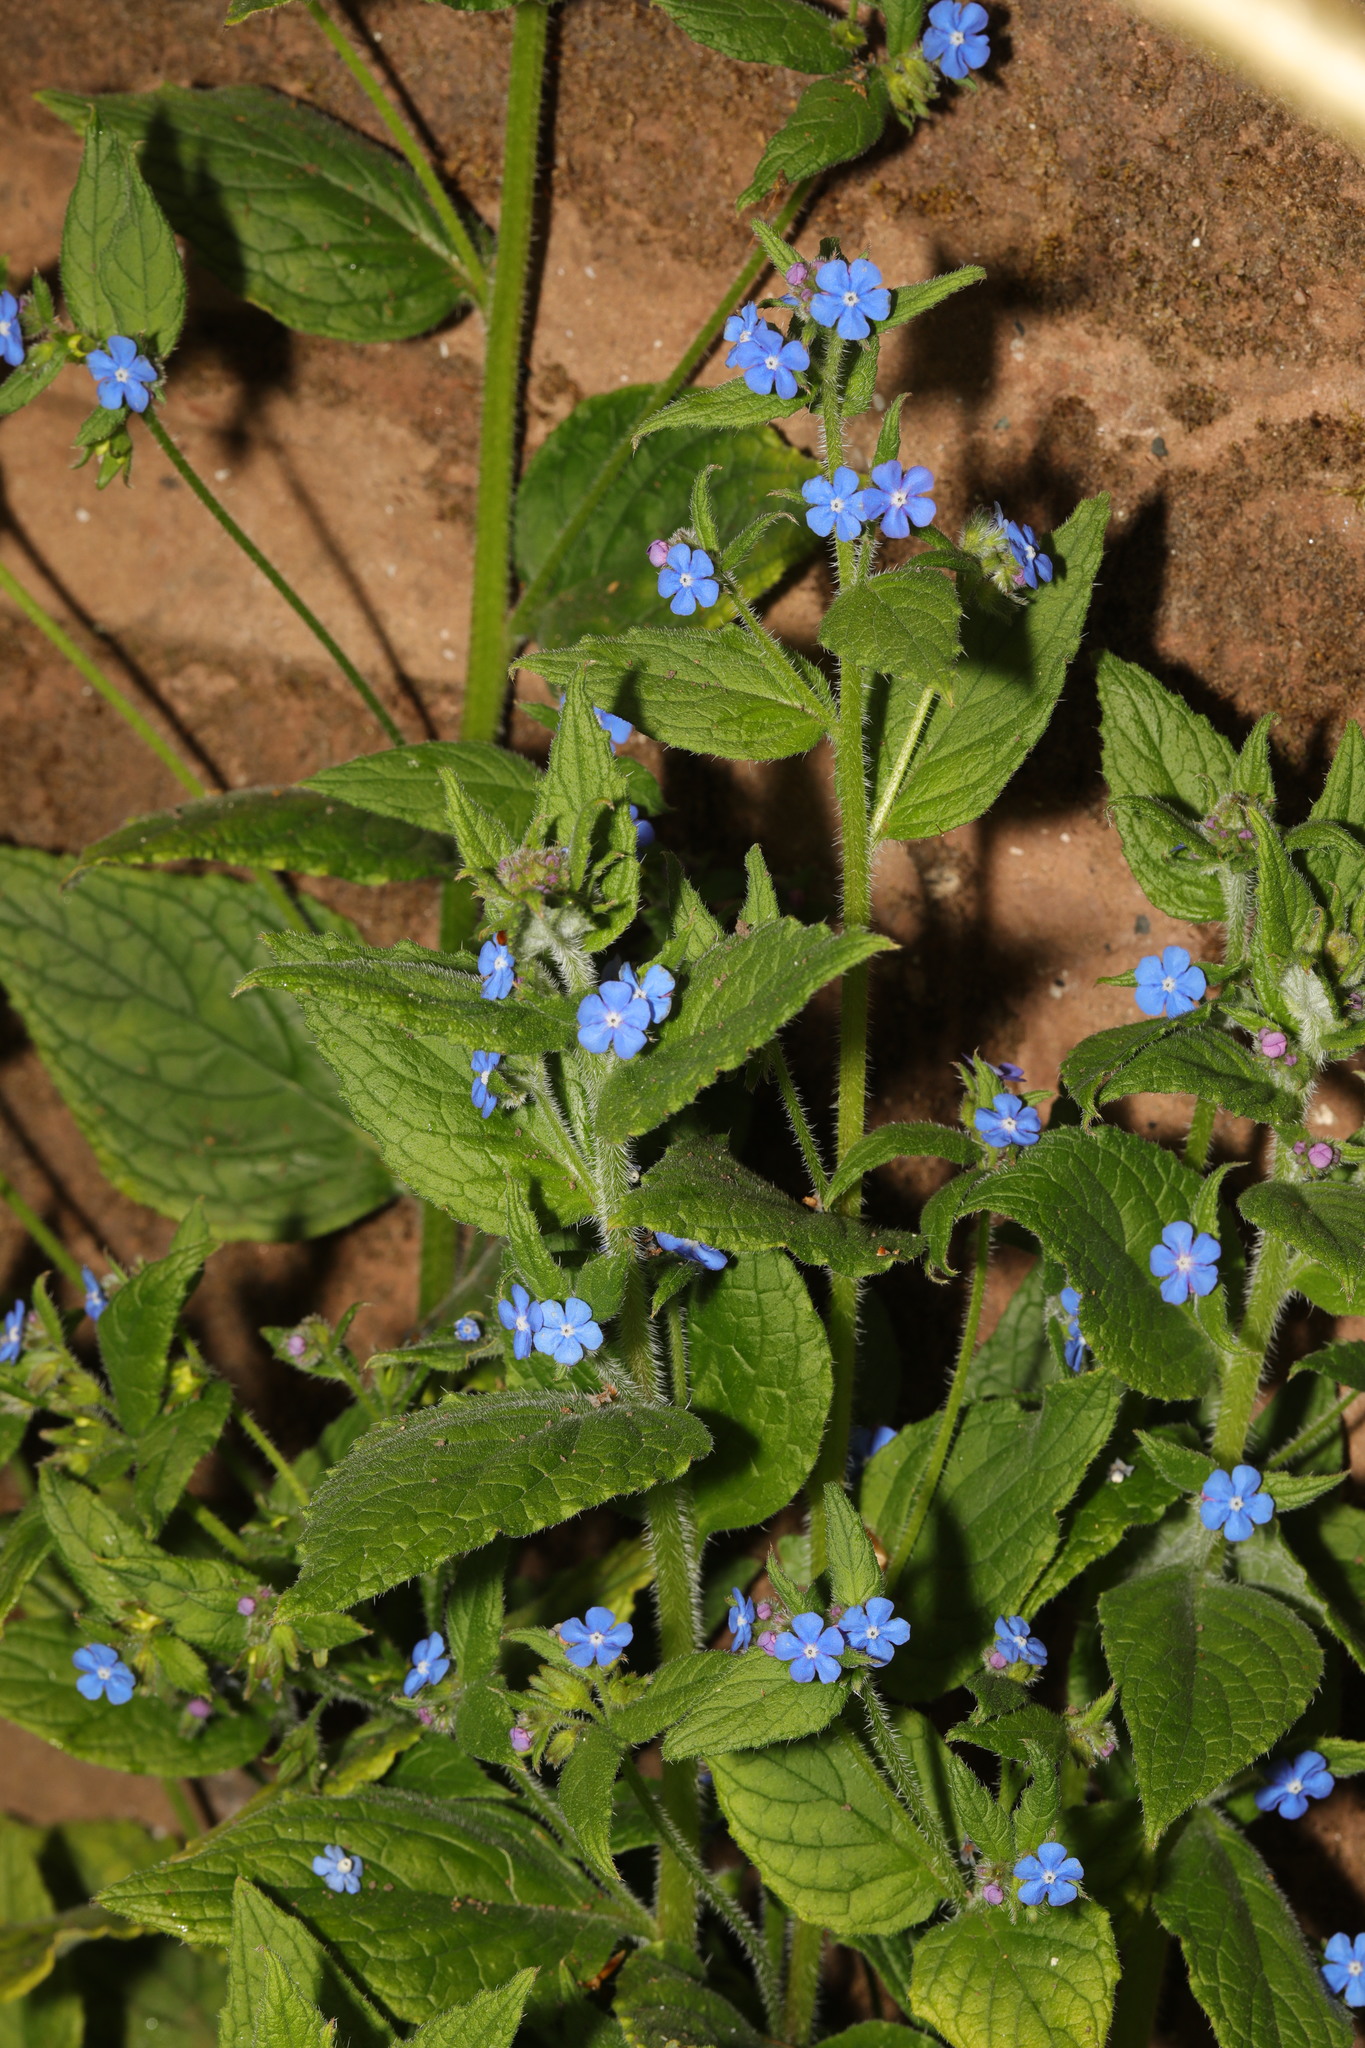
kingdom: Plantae
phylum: Tracheophyta
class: Magnoliopsida
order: Boraginales
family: Boraginaceae
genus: Pentaglottis
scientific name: Pentaglottis sempervirens
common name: Green alkanet
